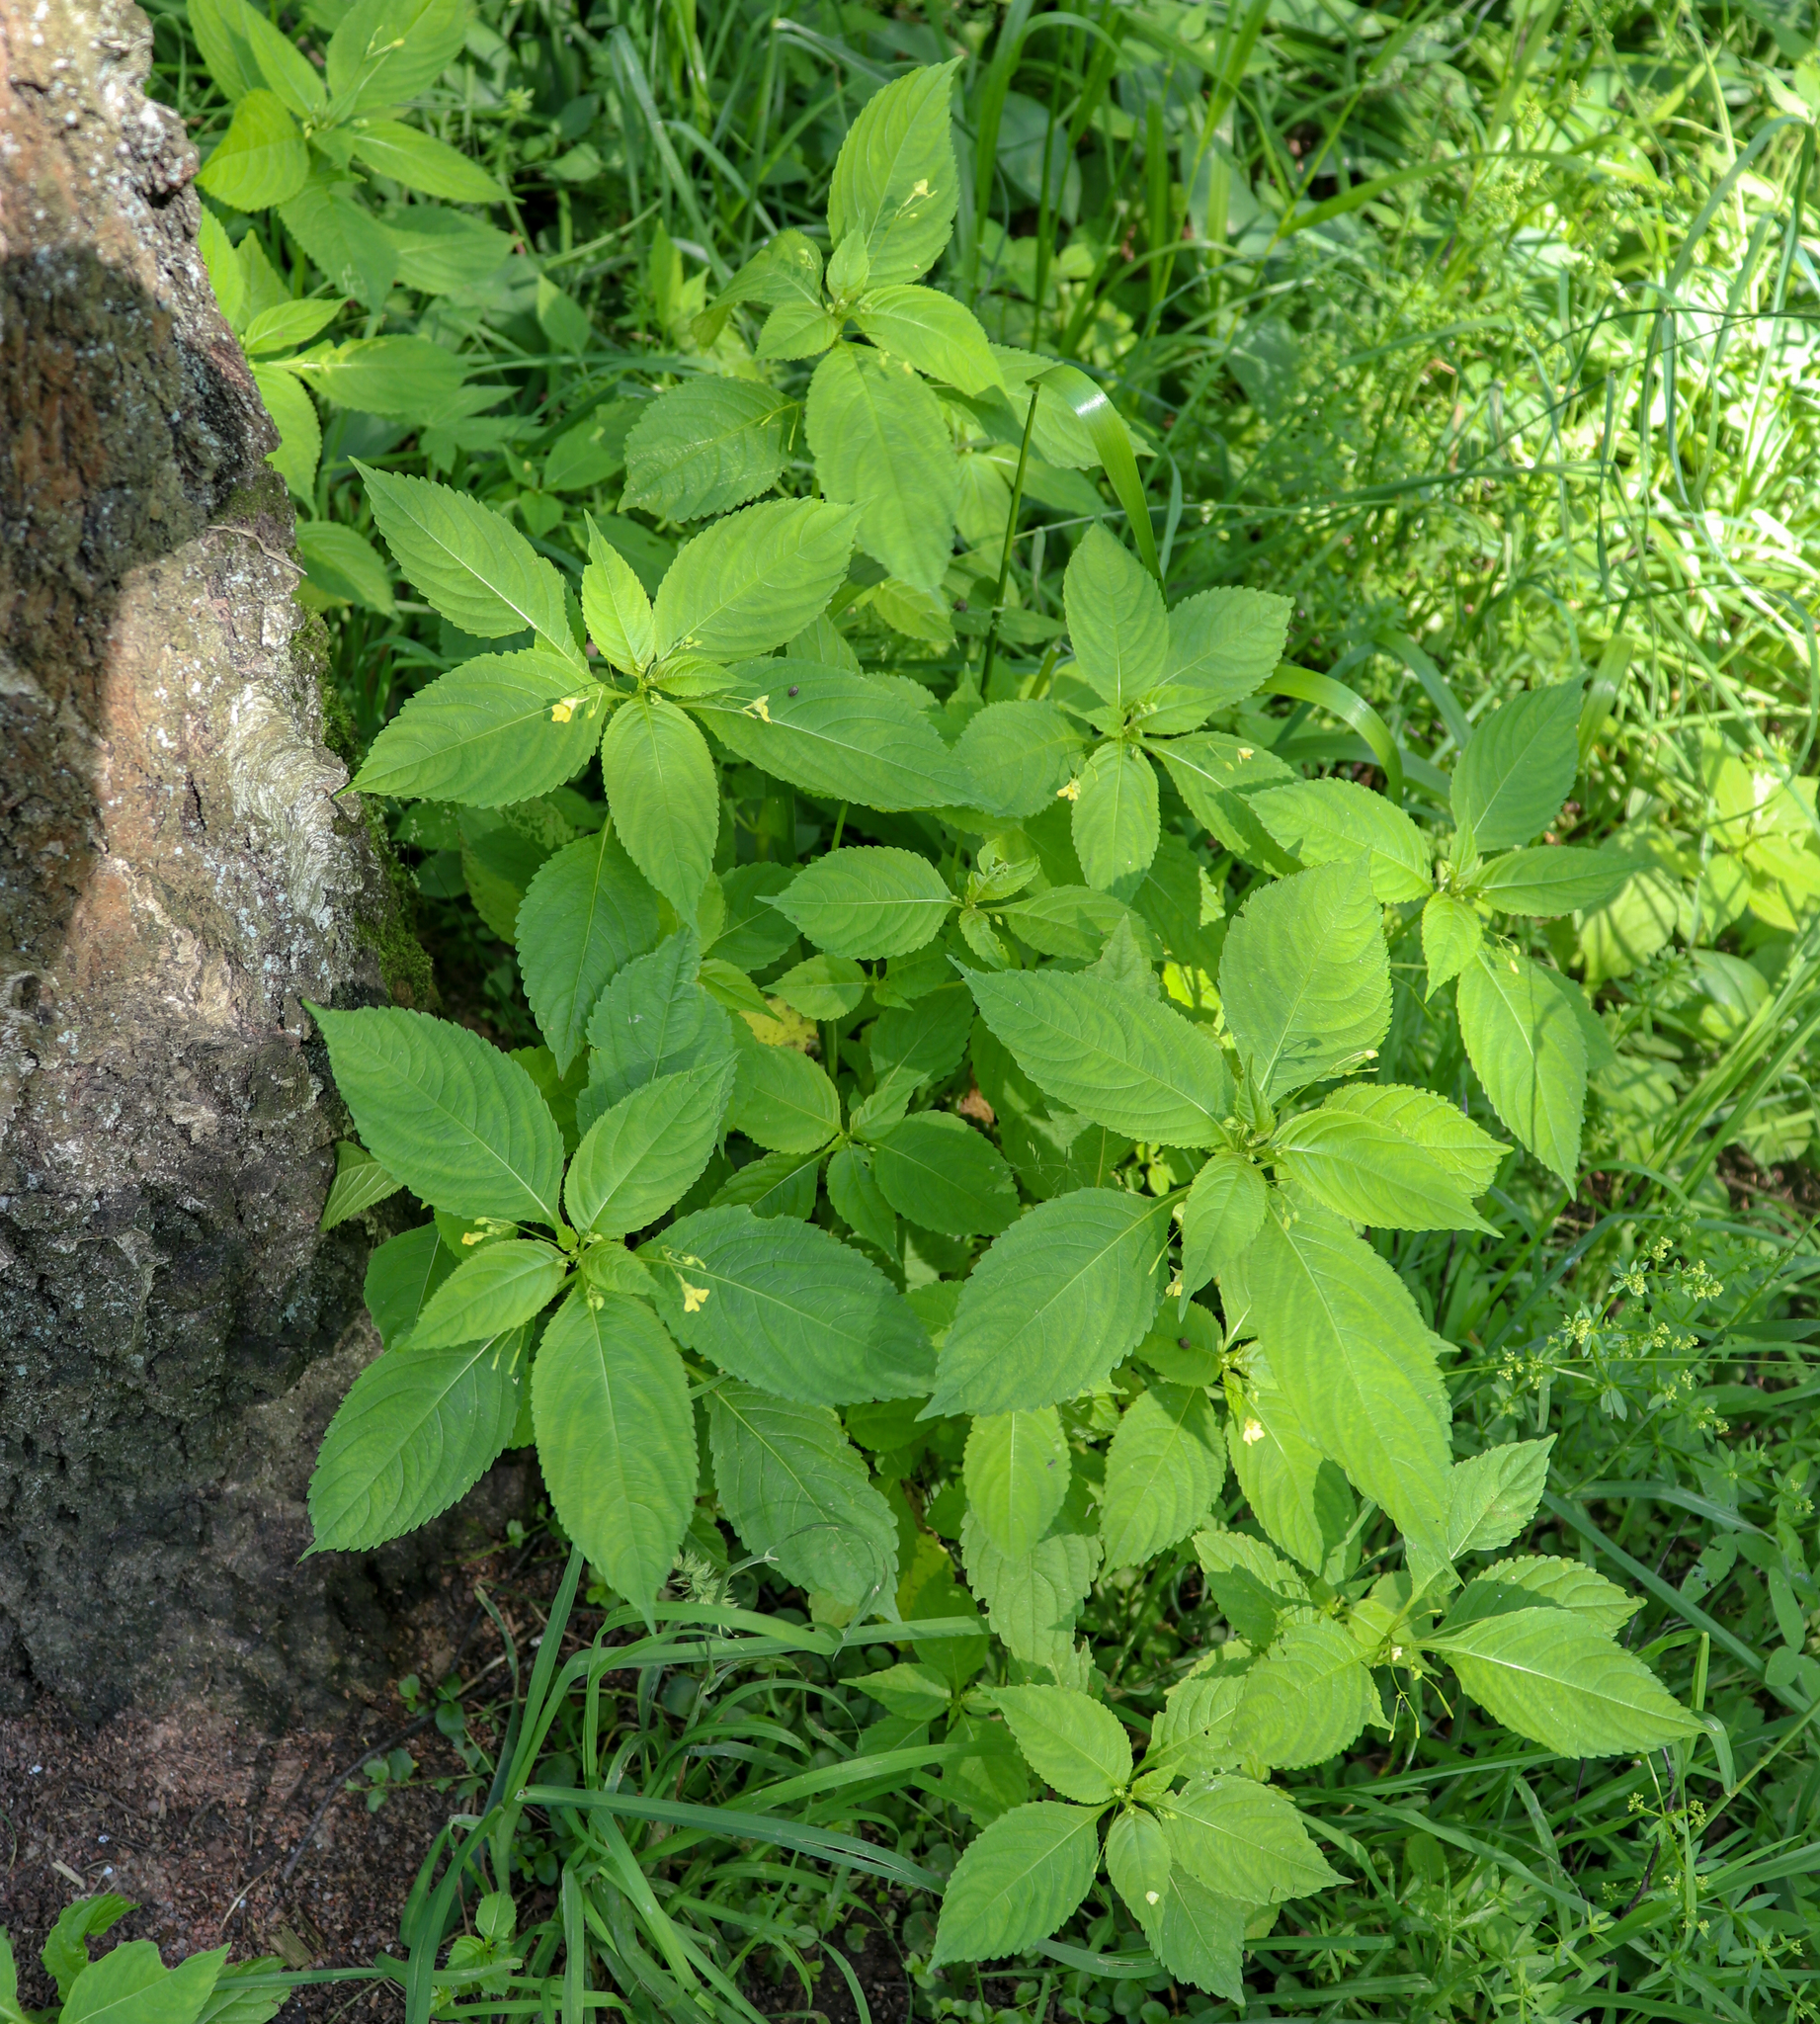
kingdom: Plantae
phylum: Tracheophyta
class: Magnoliopsida
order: Ericales
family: Balsaminaceae
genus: Impatiens
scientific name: Impatiens parviflora
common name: Small balsam
